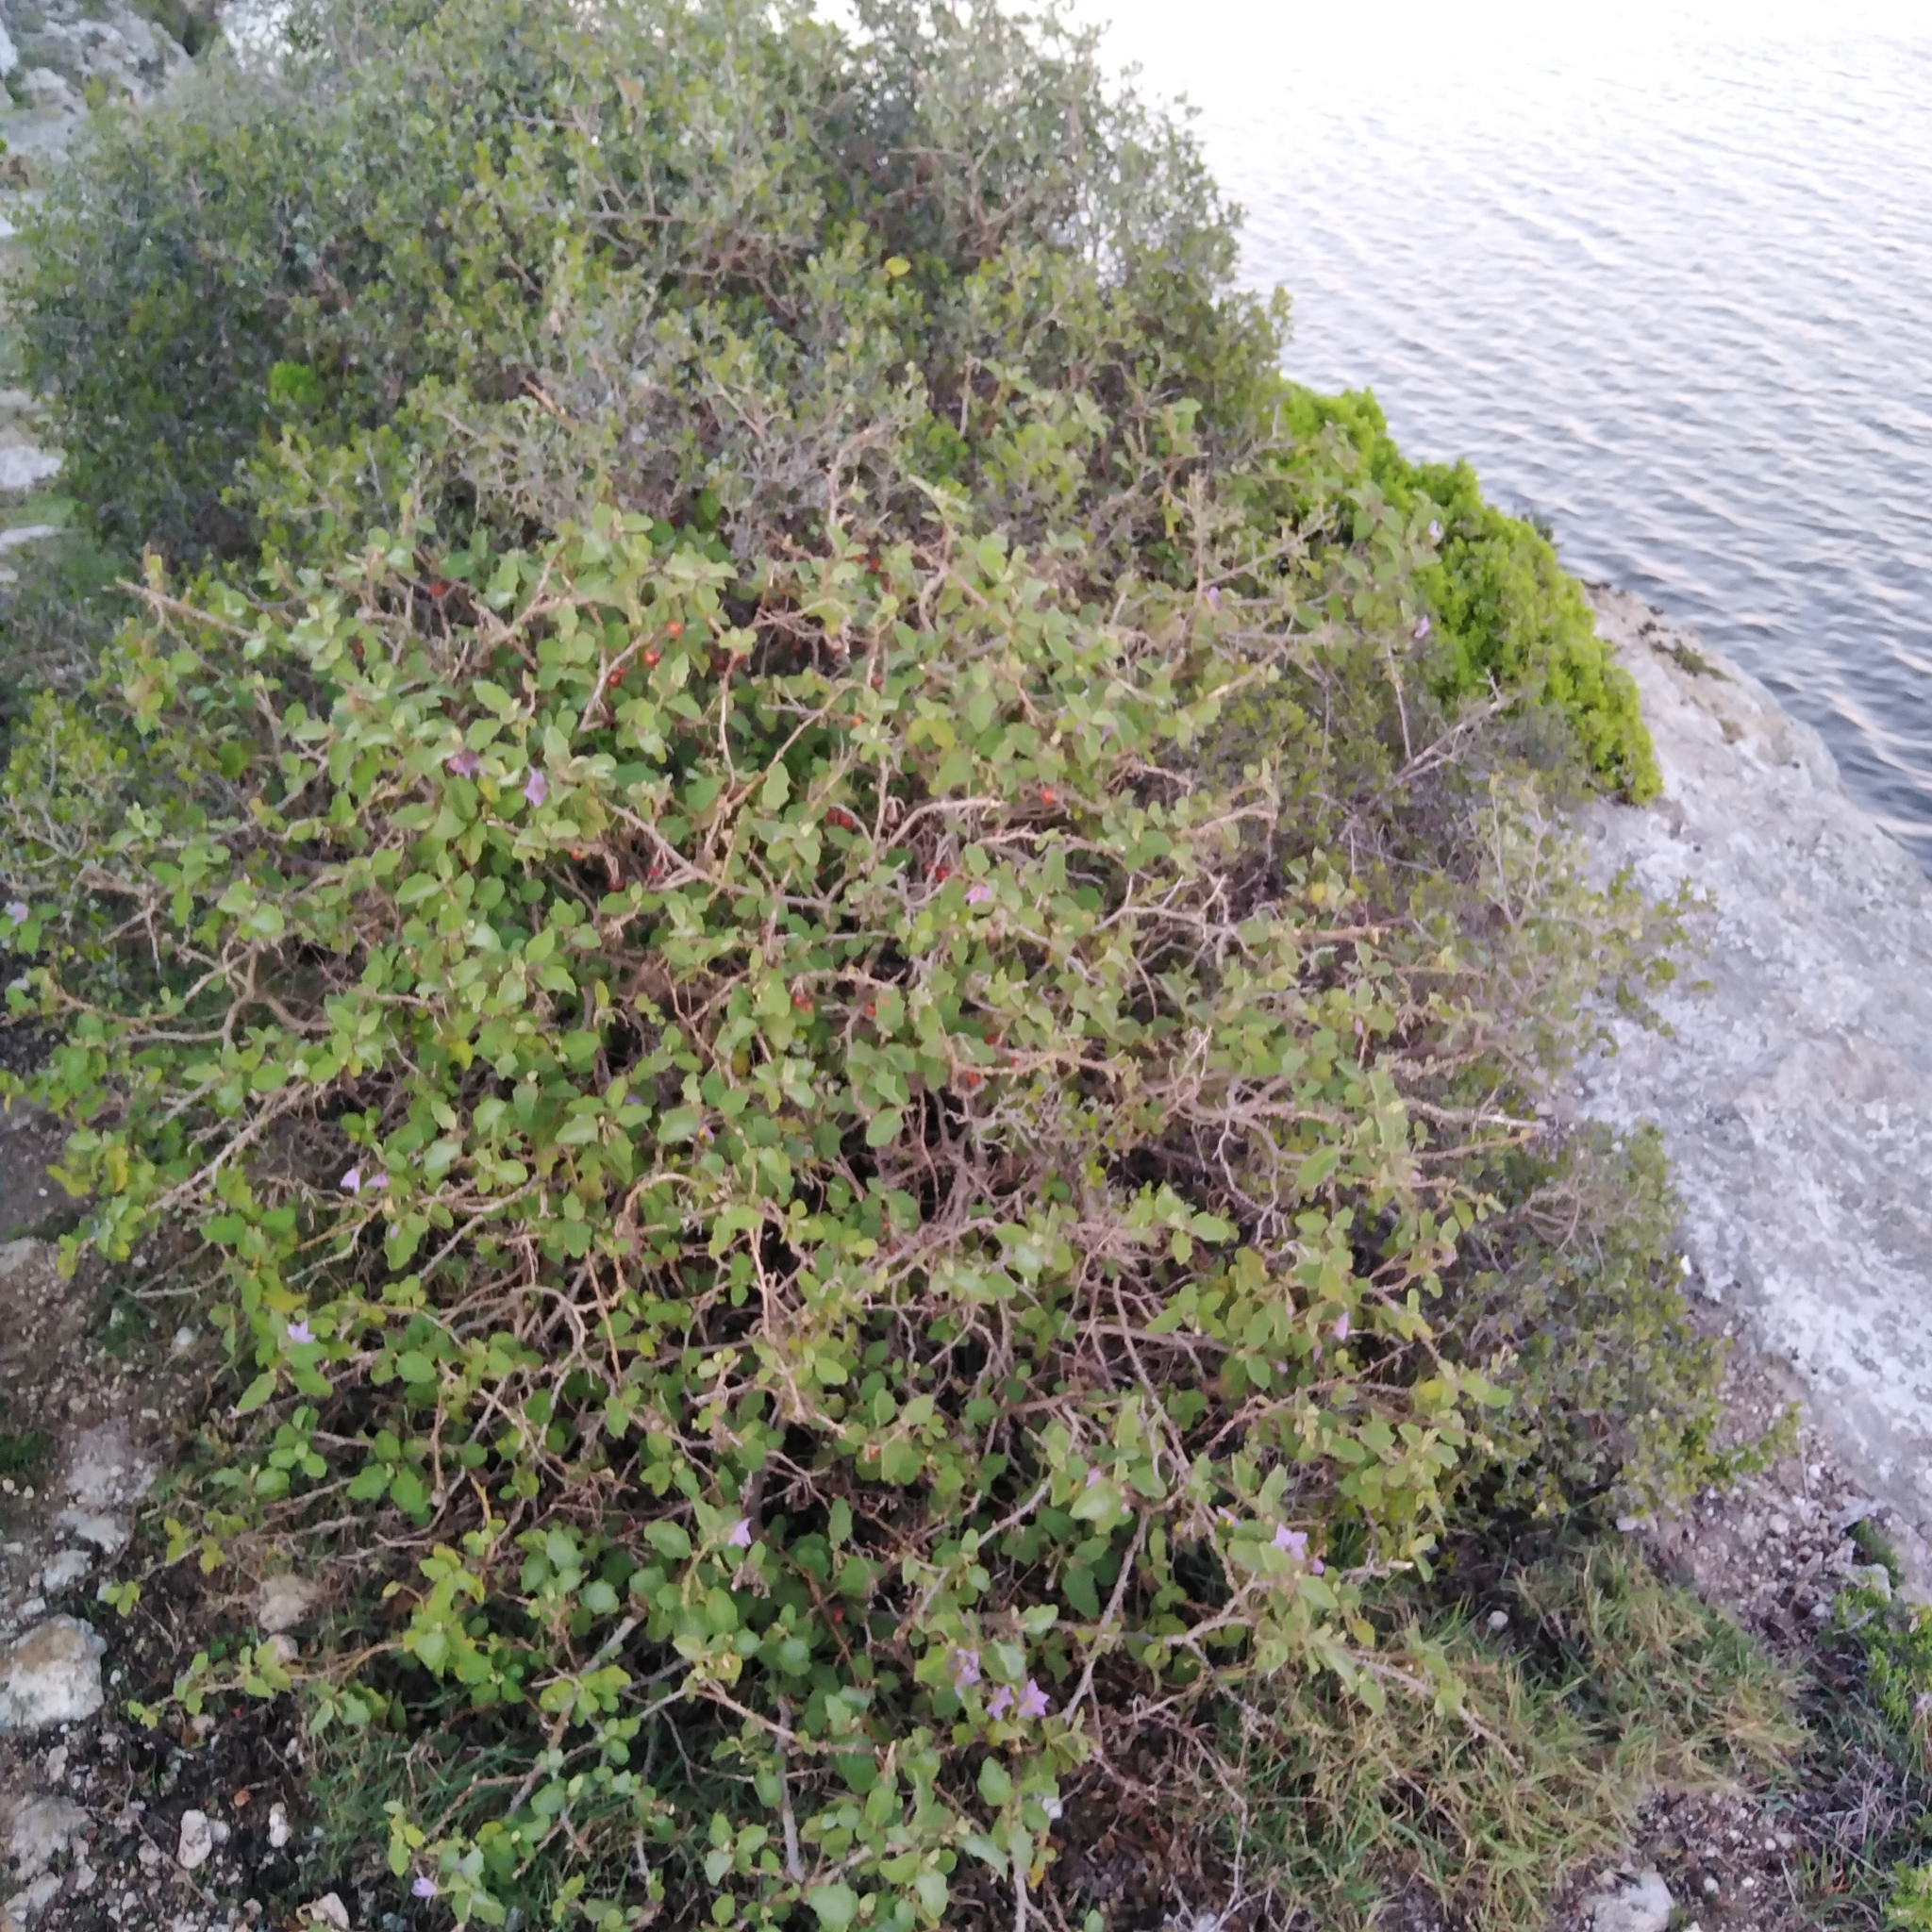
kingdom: Plantae
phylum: Tracheophyta
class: Magnoliopsida
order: Solanales
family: Solanaceae
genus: Solanum
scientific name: Solanum tomentosum
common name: Wild aubergine
